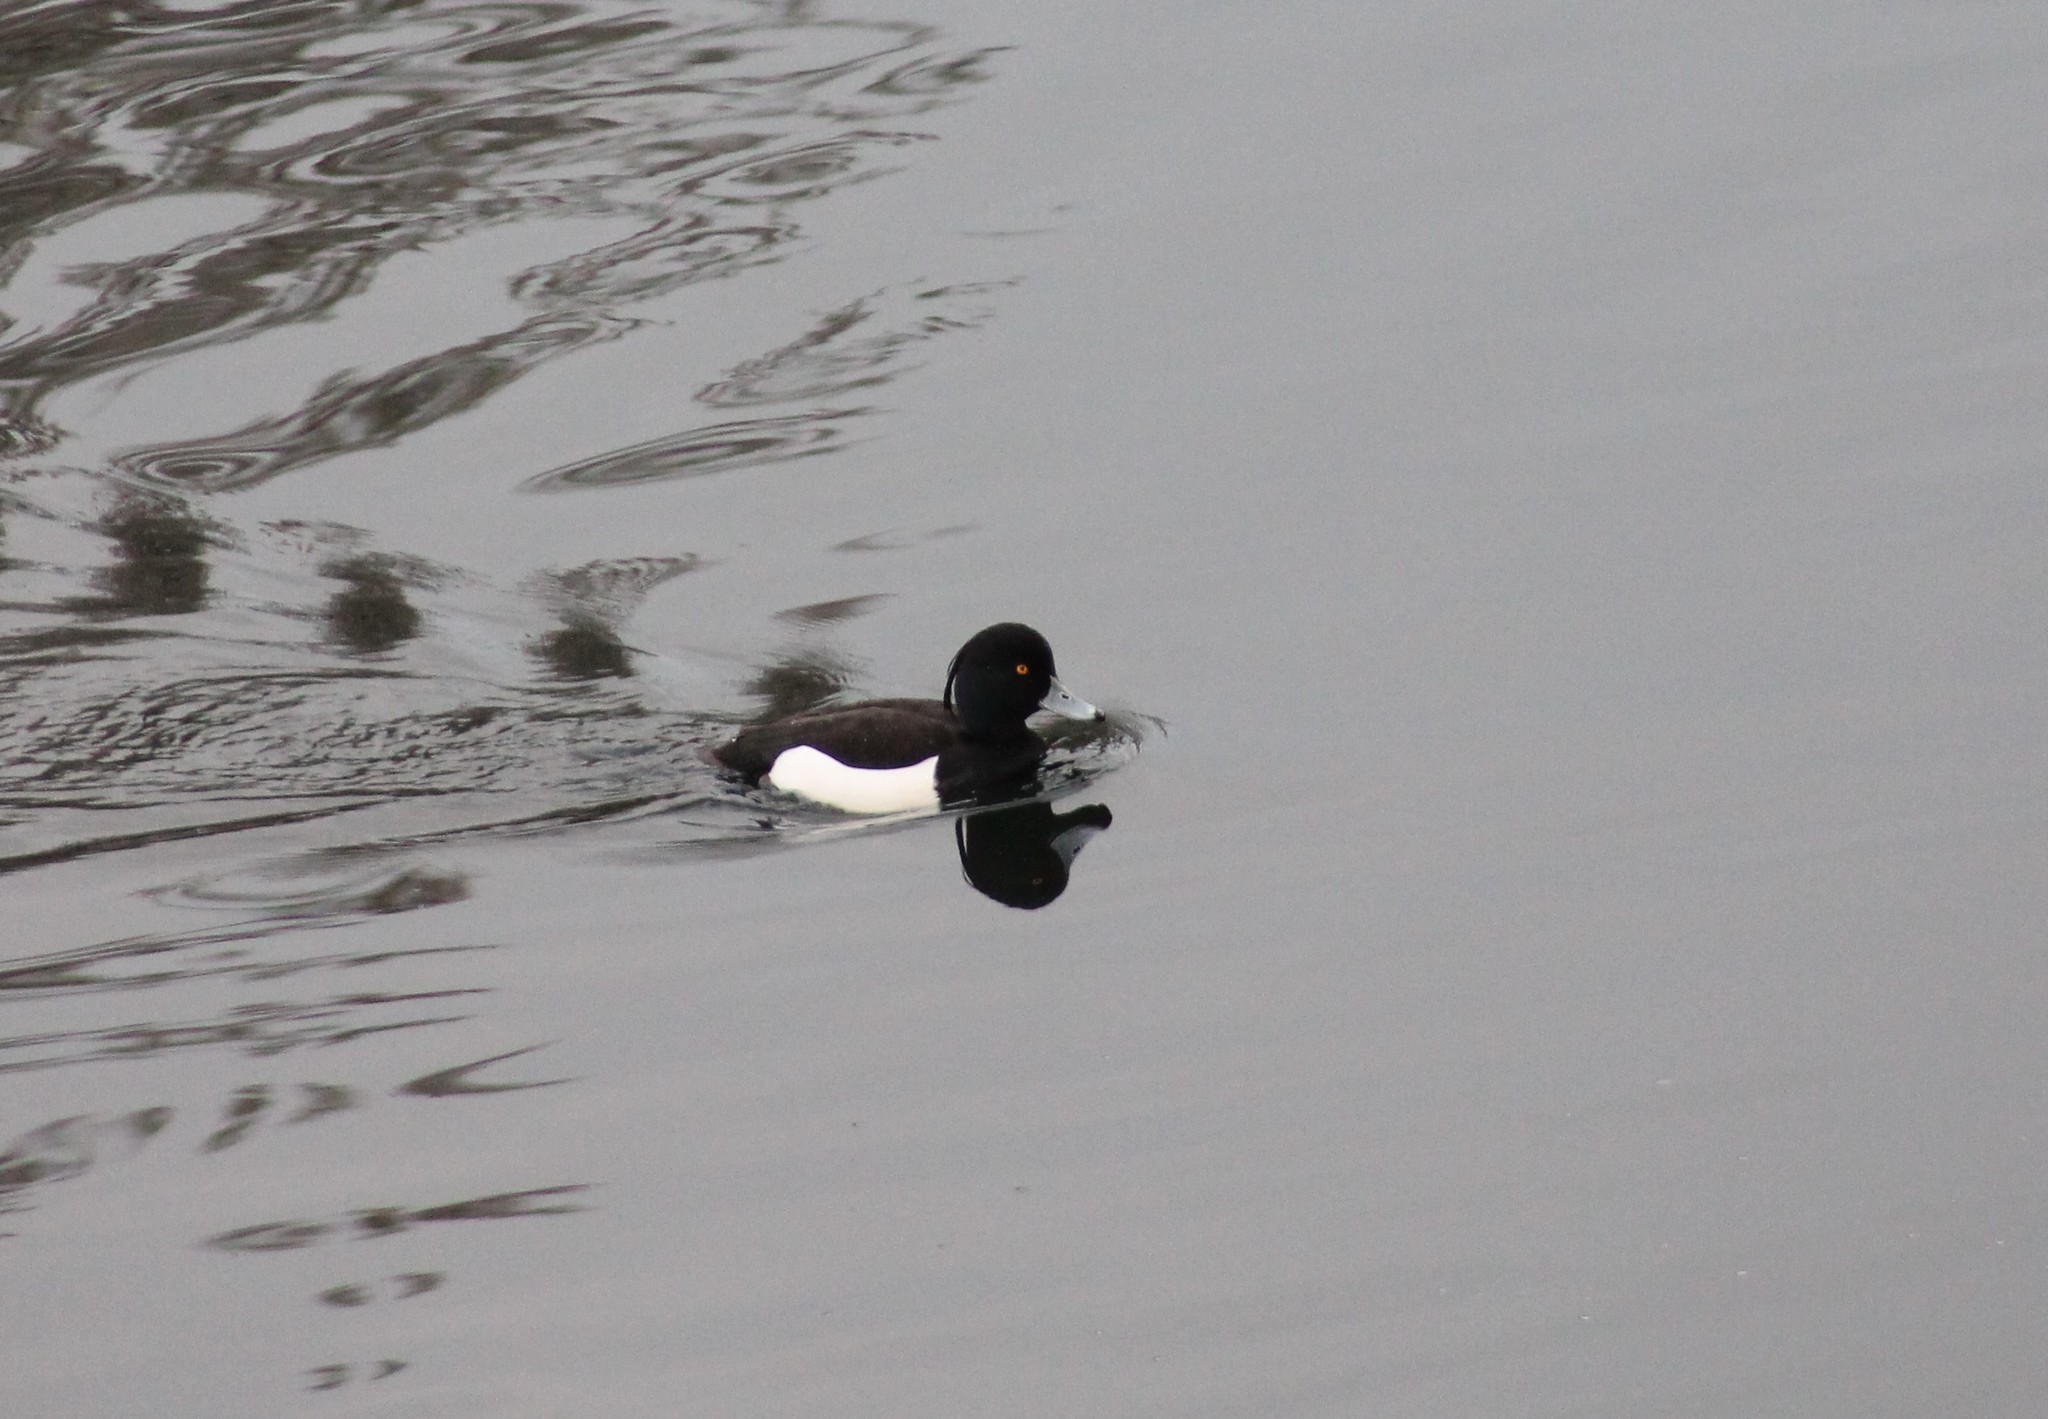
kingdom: Animalia
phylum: Chordata
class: Aves
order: Anseriformes
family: Anatidae
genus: Aythya
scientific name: Aythya fuligula
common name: Tufted duck
